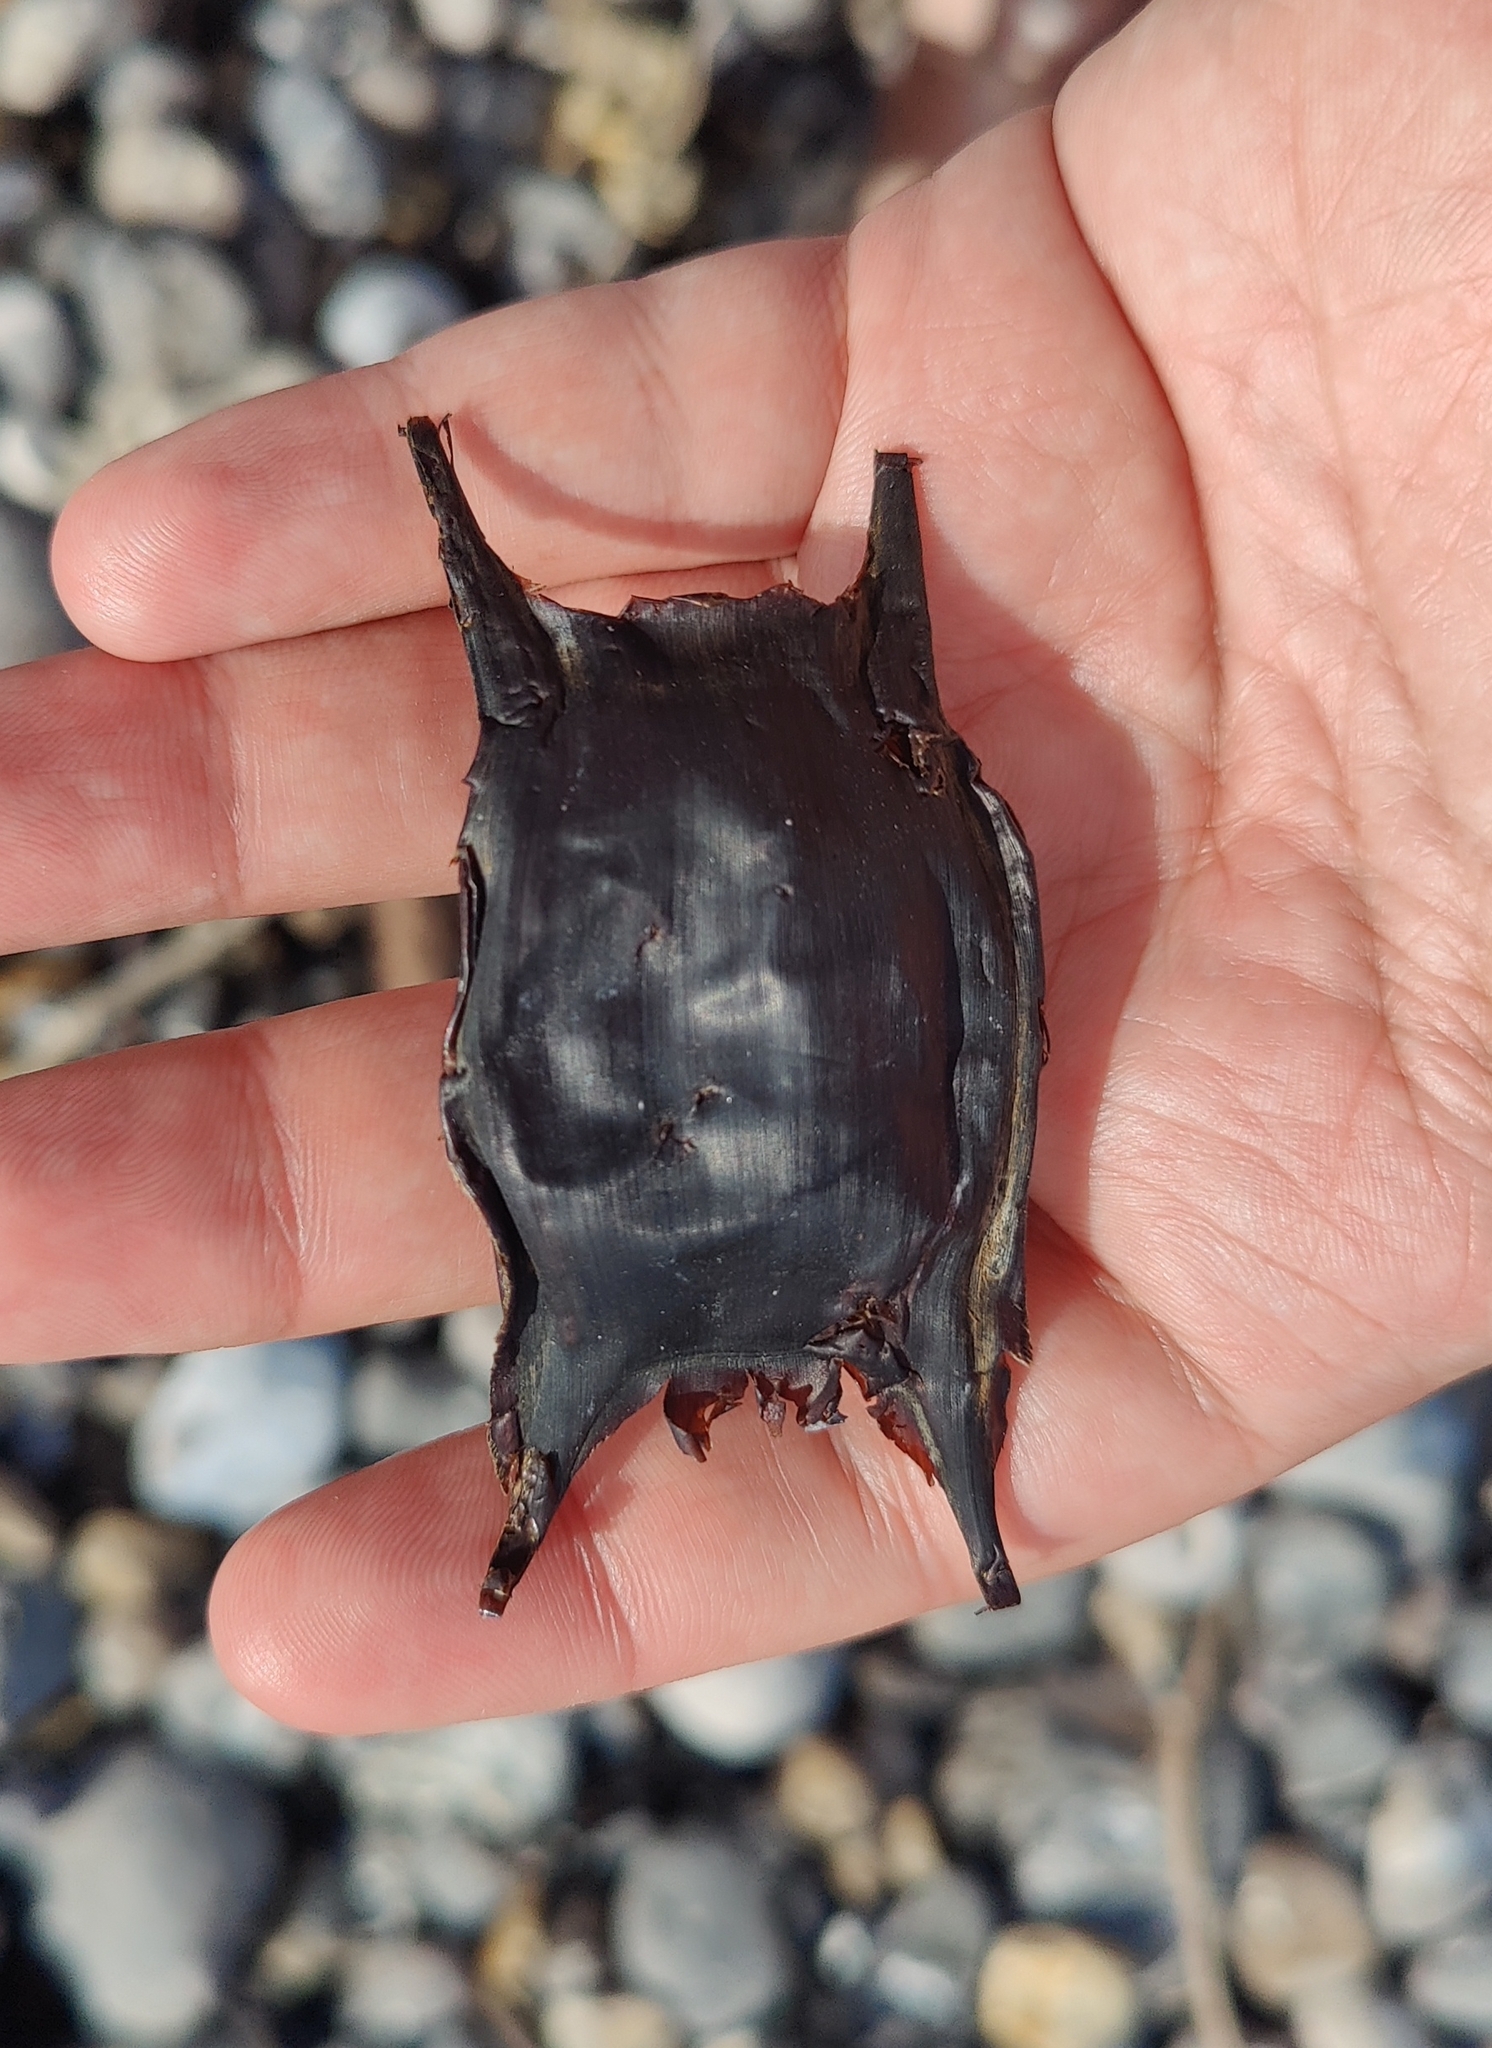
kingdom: Animalia
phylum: Chordata
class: Elasmobranchii
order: Rajiformes
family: Rajidae
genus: Raja
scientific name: Raja clavata
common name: Thornback ray
